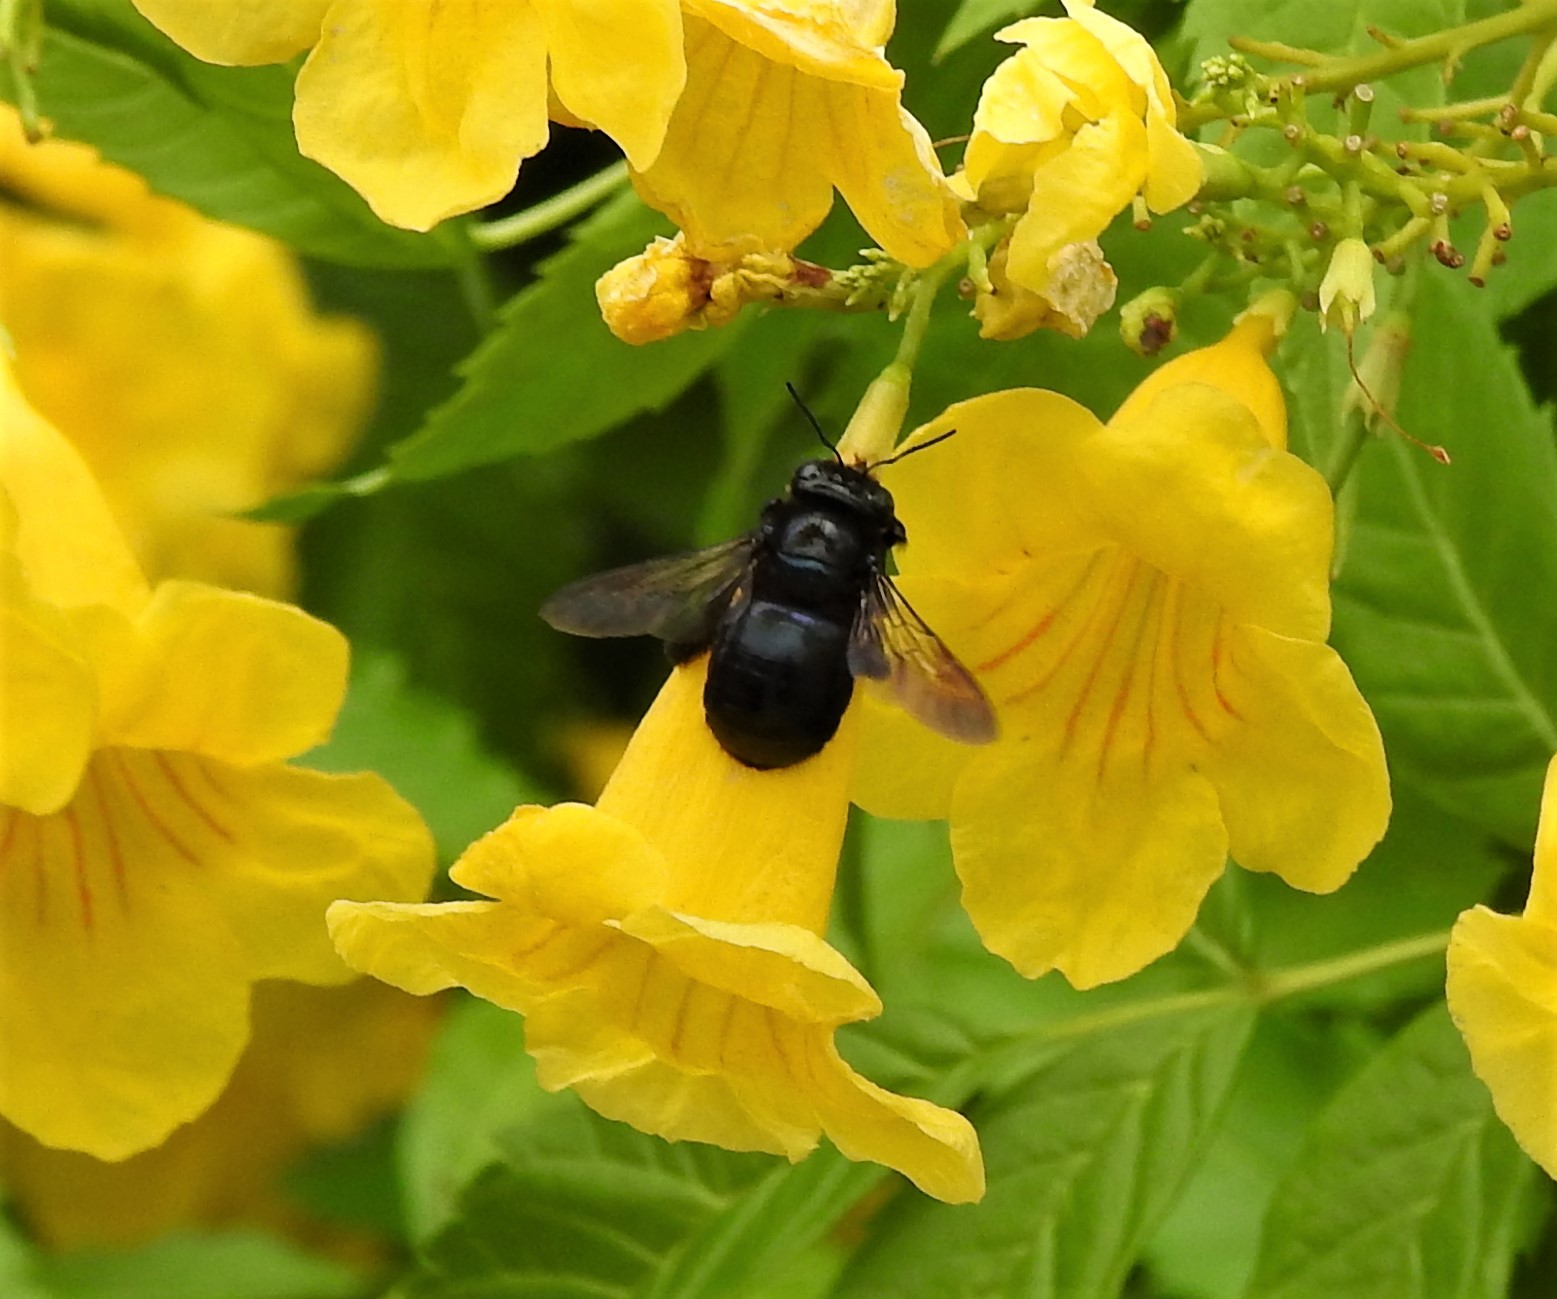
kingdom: Animalia
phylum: Arthropoda
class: Insecta
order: Hymenoptera
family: Apidae
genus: Xylocopa
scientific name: Xylocopa micans
